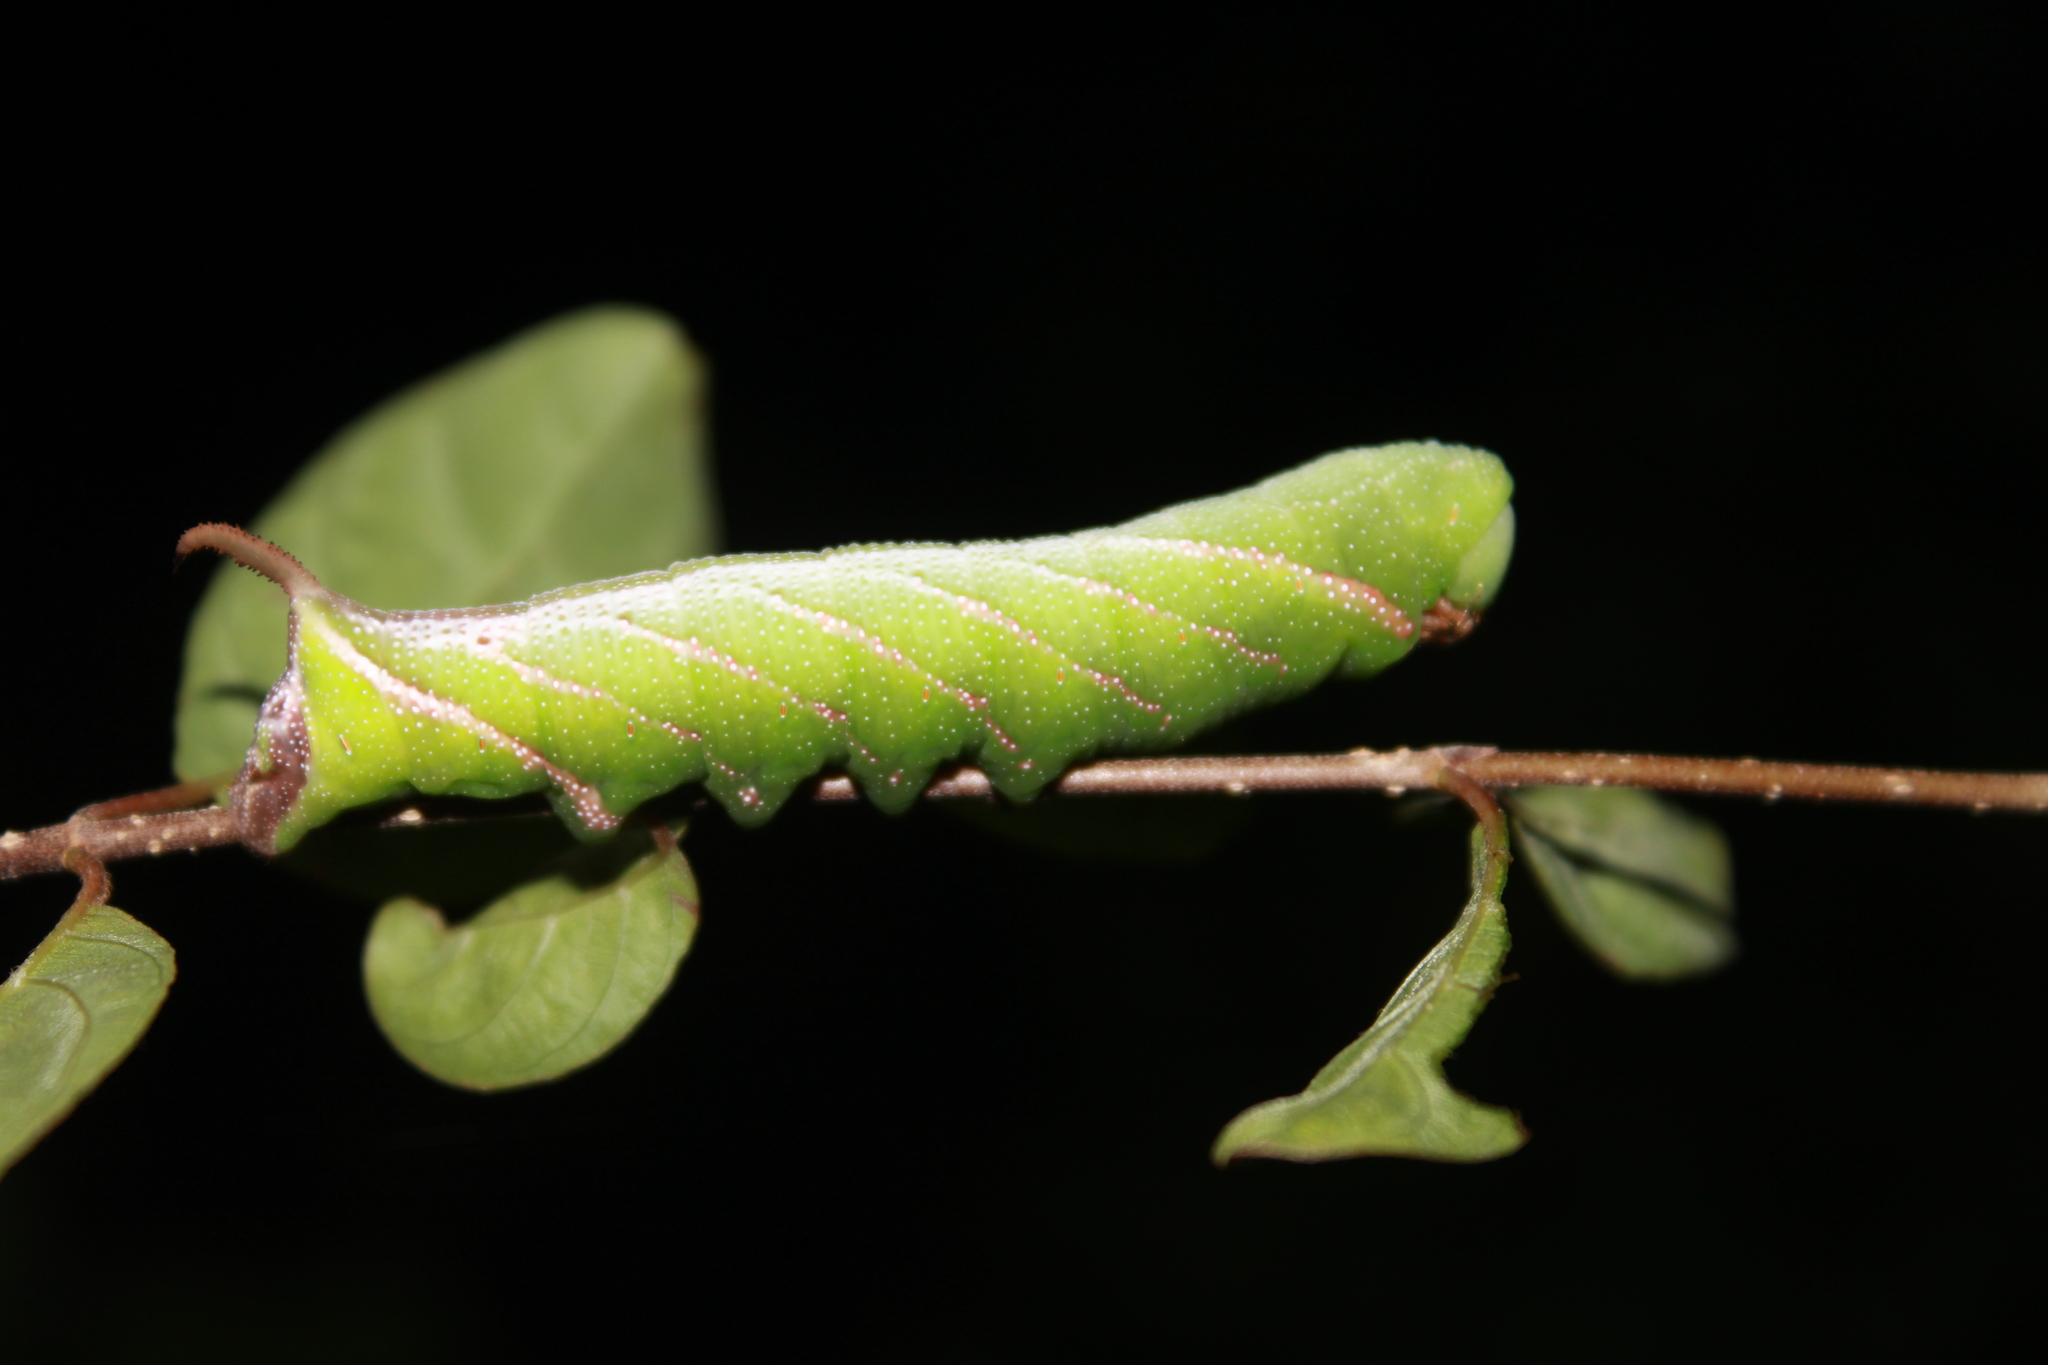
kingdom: Animalia
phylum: Arthropoda
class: Insecta
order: Lepidoptera
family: Sphingidae
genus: Eupyrrhoglossum
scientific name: Eupyrrhoglossum sagra
